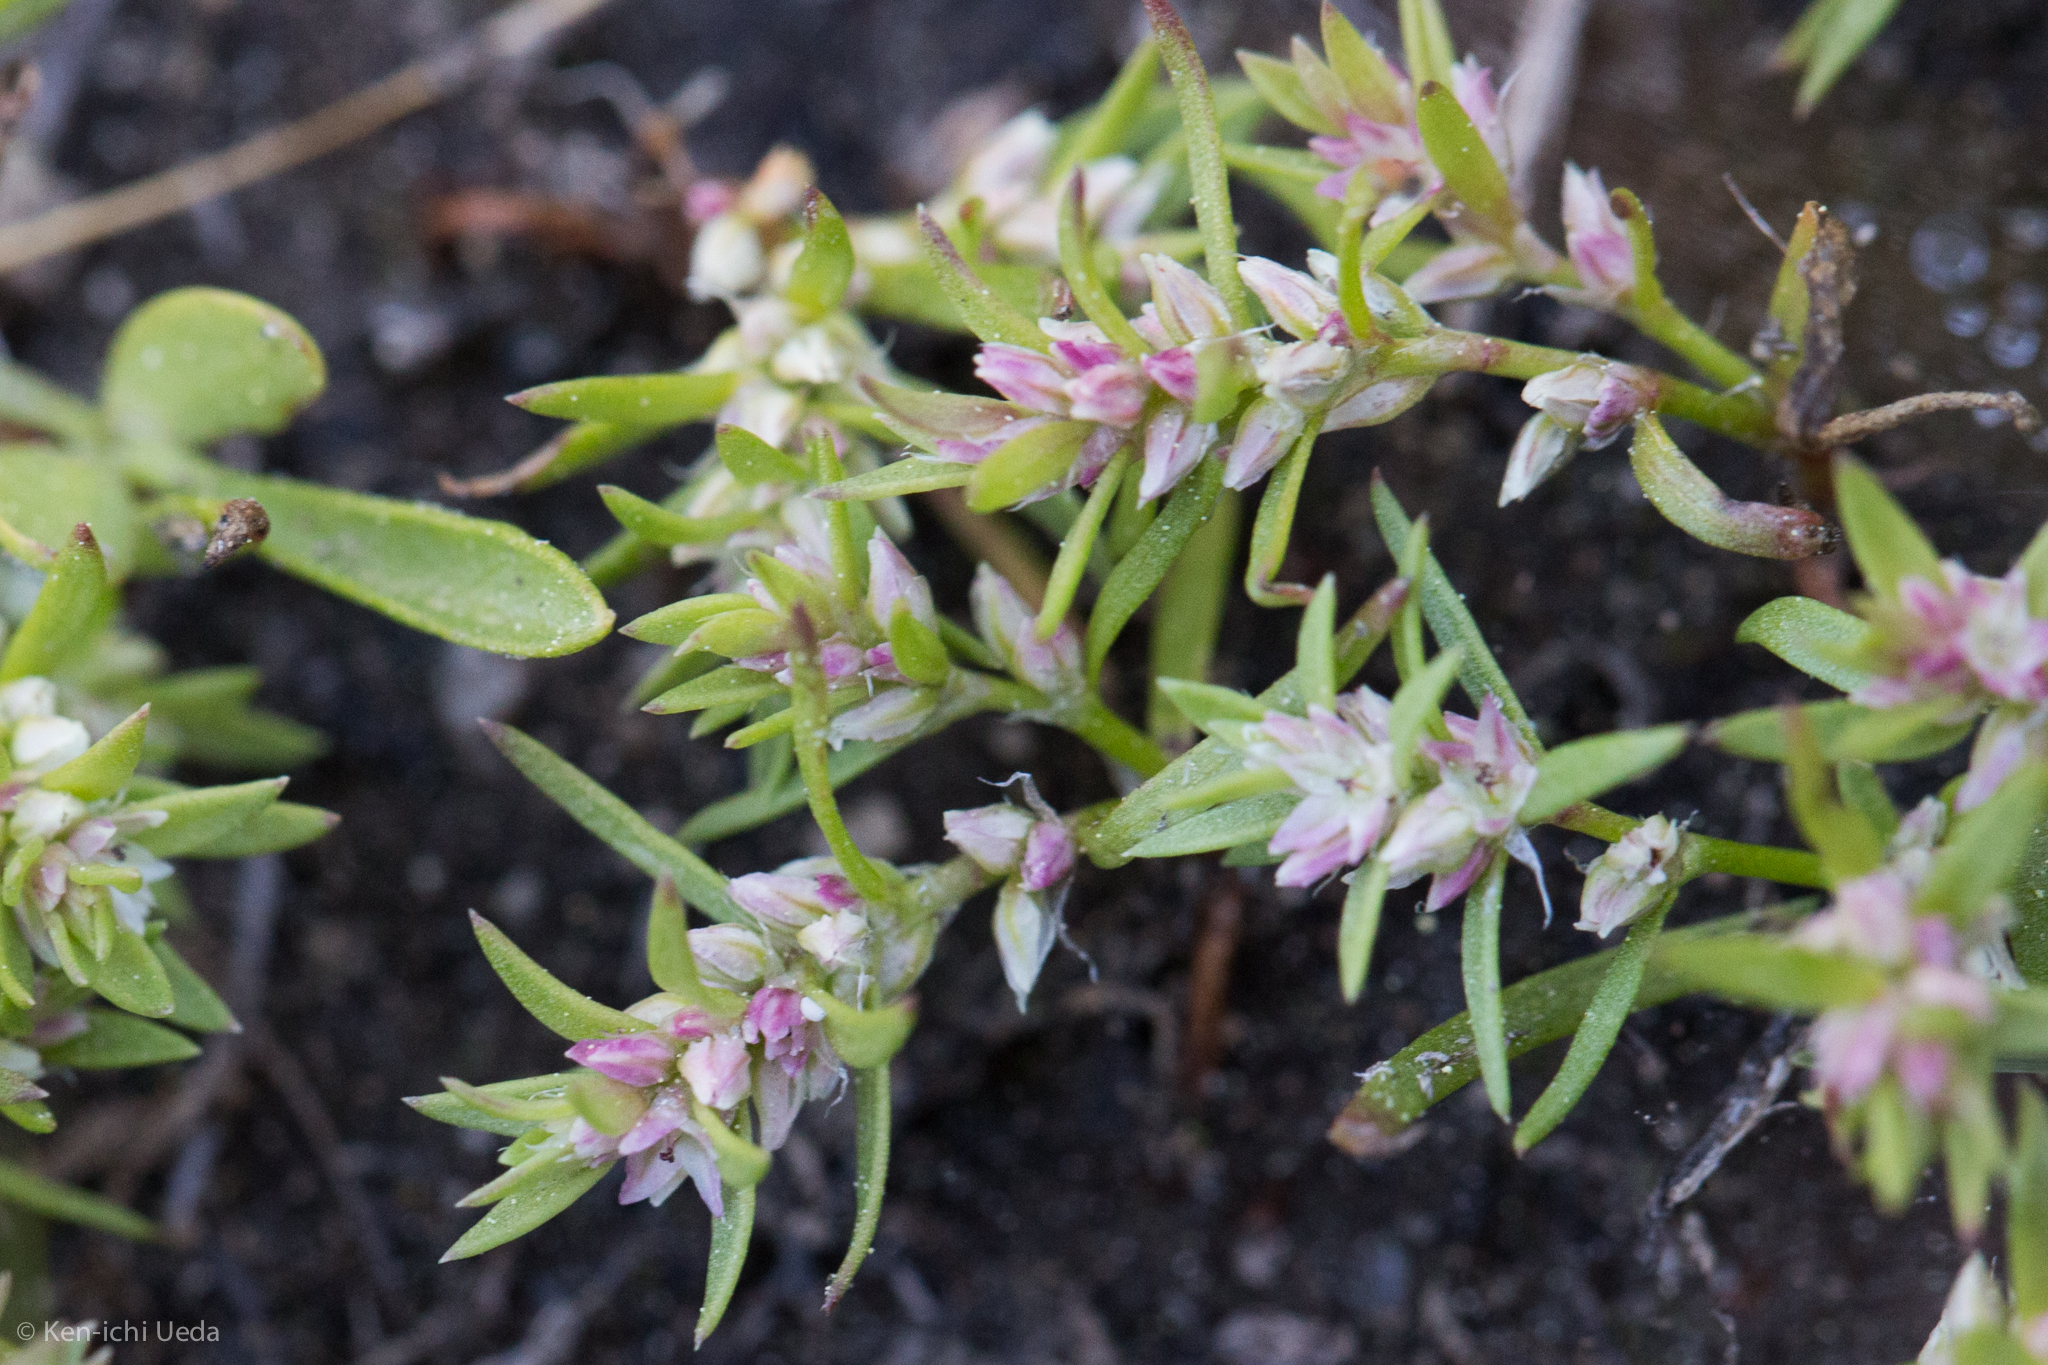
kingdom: Plantae
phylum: Tracheophyta
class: Magnoliopsida
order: Caryophyllales
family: Polygonaceae
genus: Polygonum
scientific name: Polygonum polygaloides
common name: Polygala knotweed
